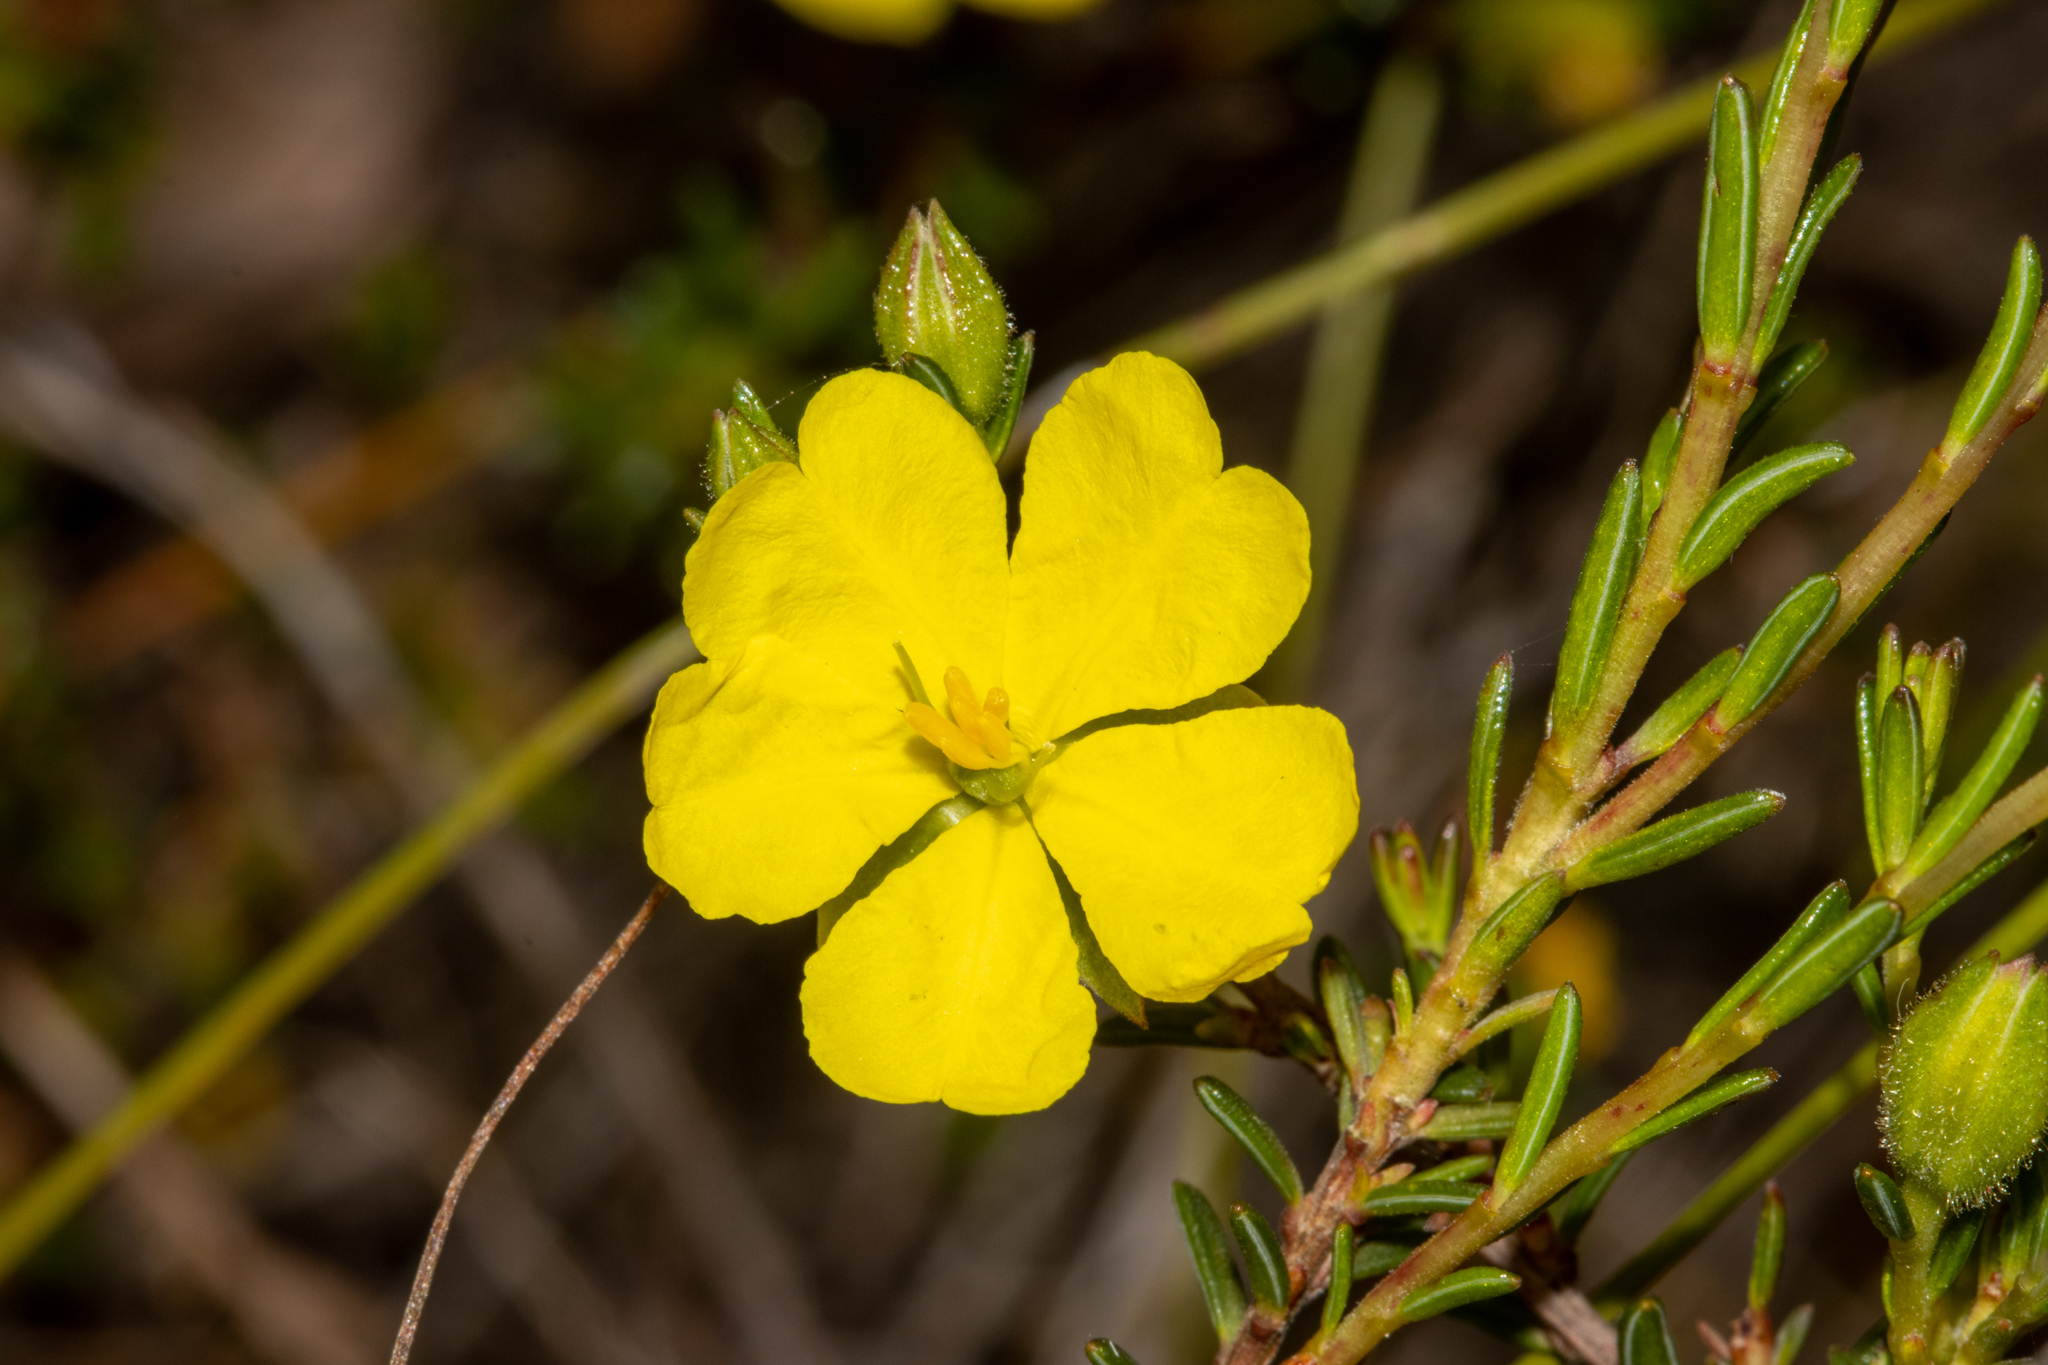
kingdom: Plantae
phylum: Tracheophyta
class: Magnoliopsida
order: Dilleniales
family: Dilleniaceae
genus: Hibbertia
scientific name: Hibbertia devitata
